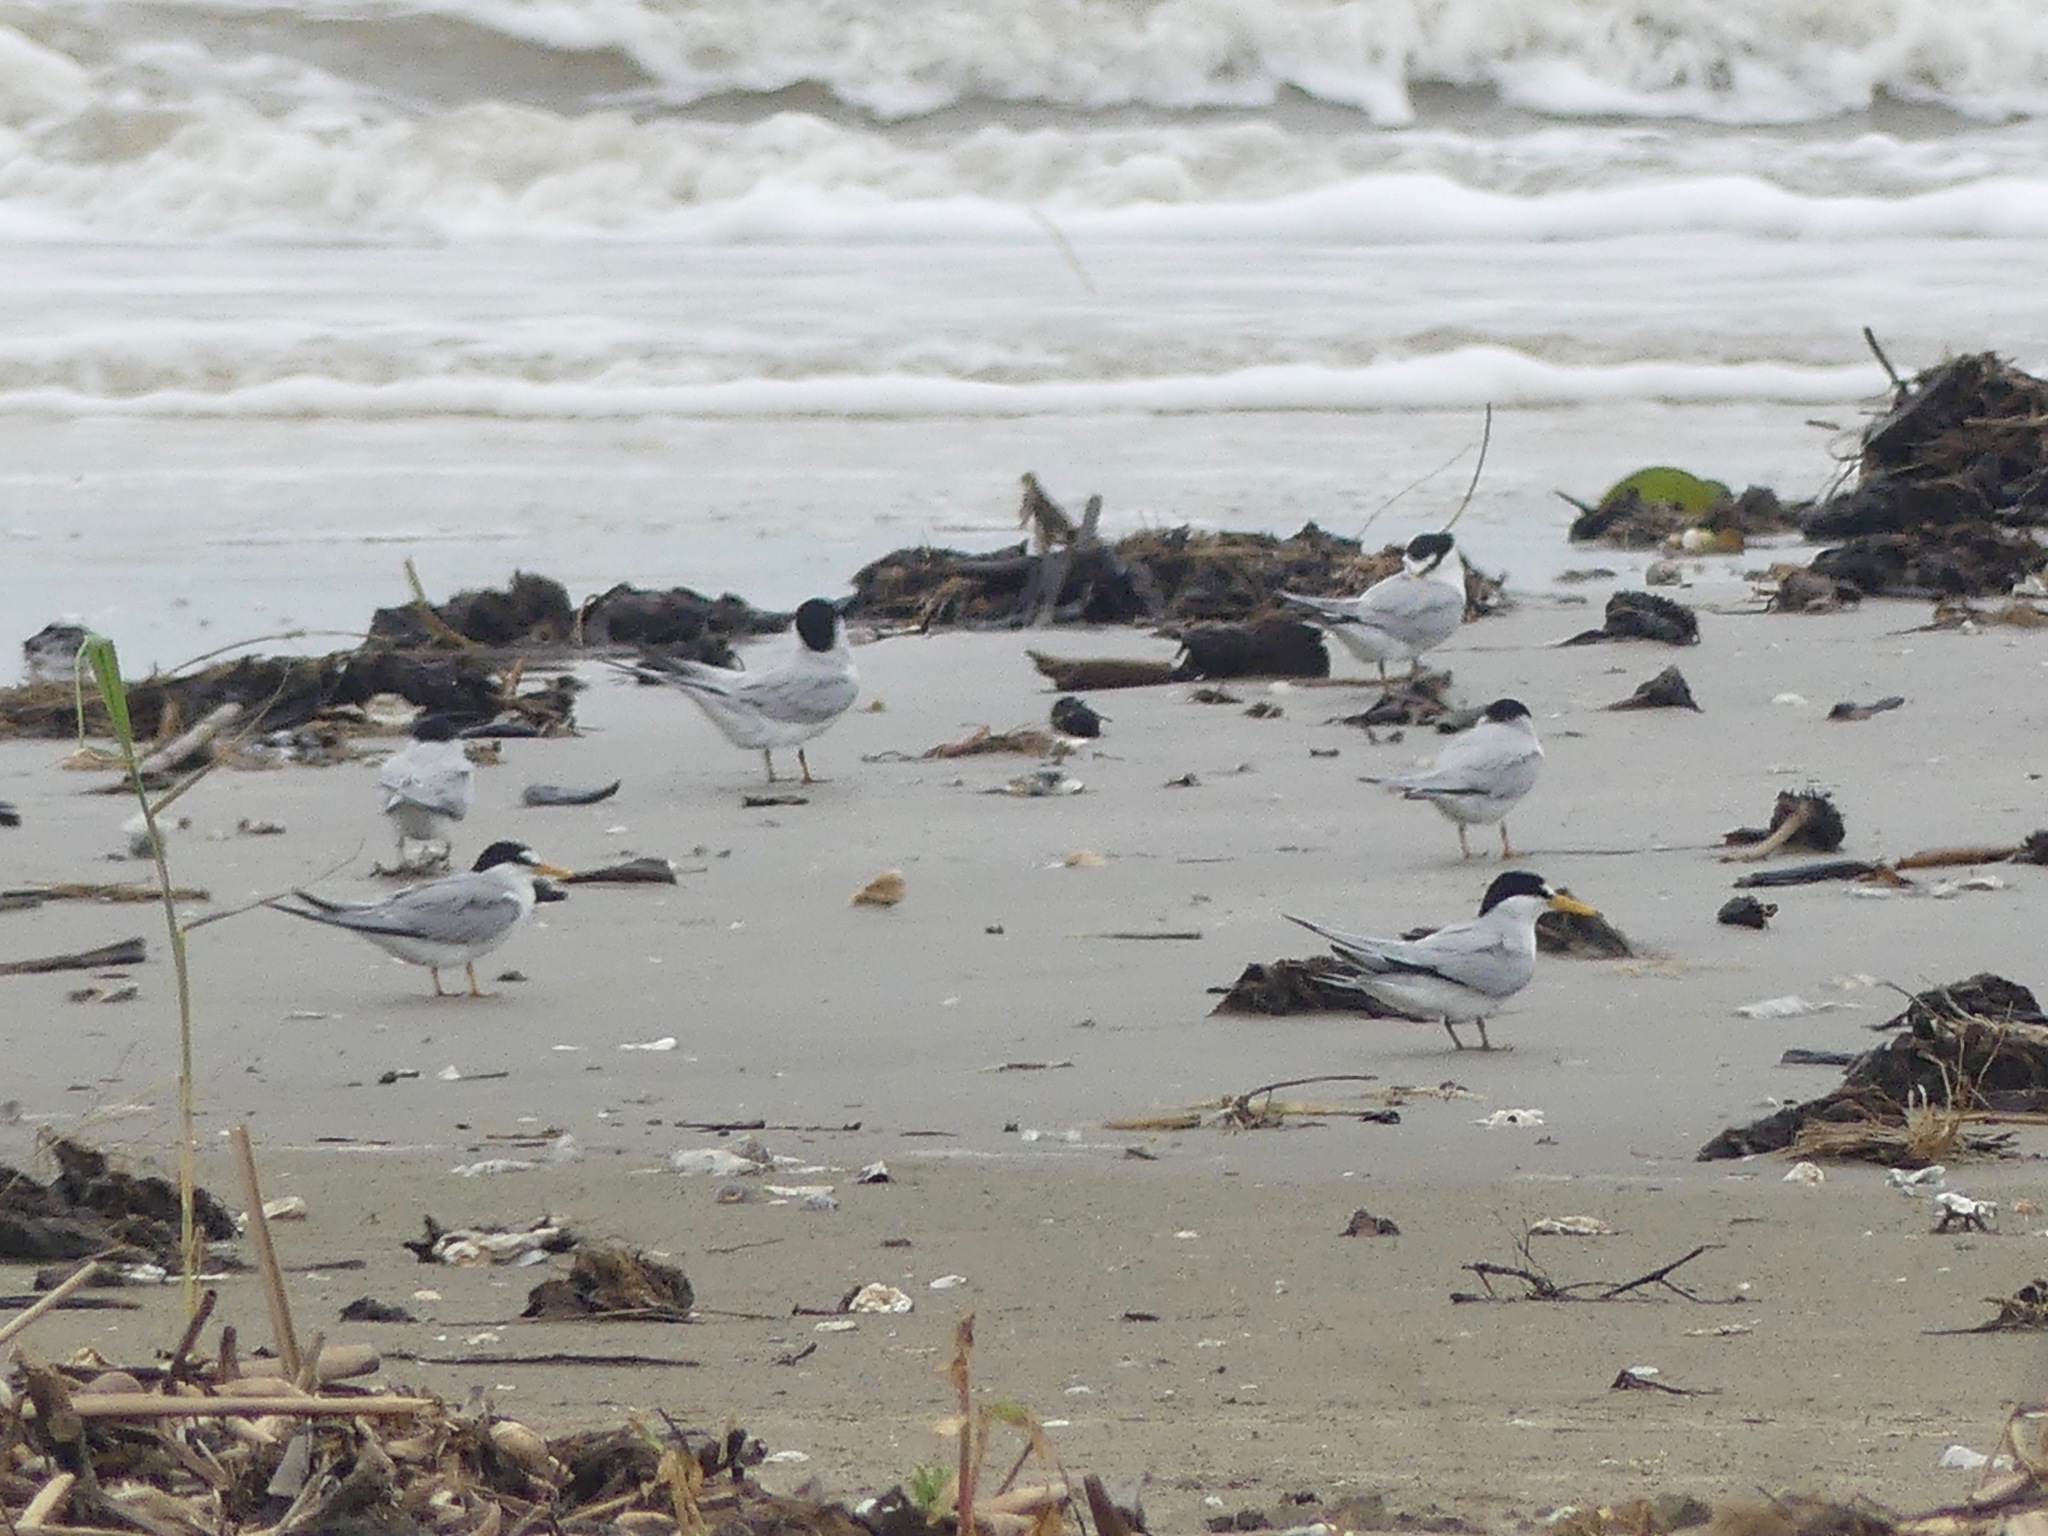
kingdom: Animalia
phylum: Chordata
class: Aves
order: Charadriiformes
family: Laridae
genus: Sternula
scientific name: Sternula antillarum
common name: Least tern
